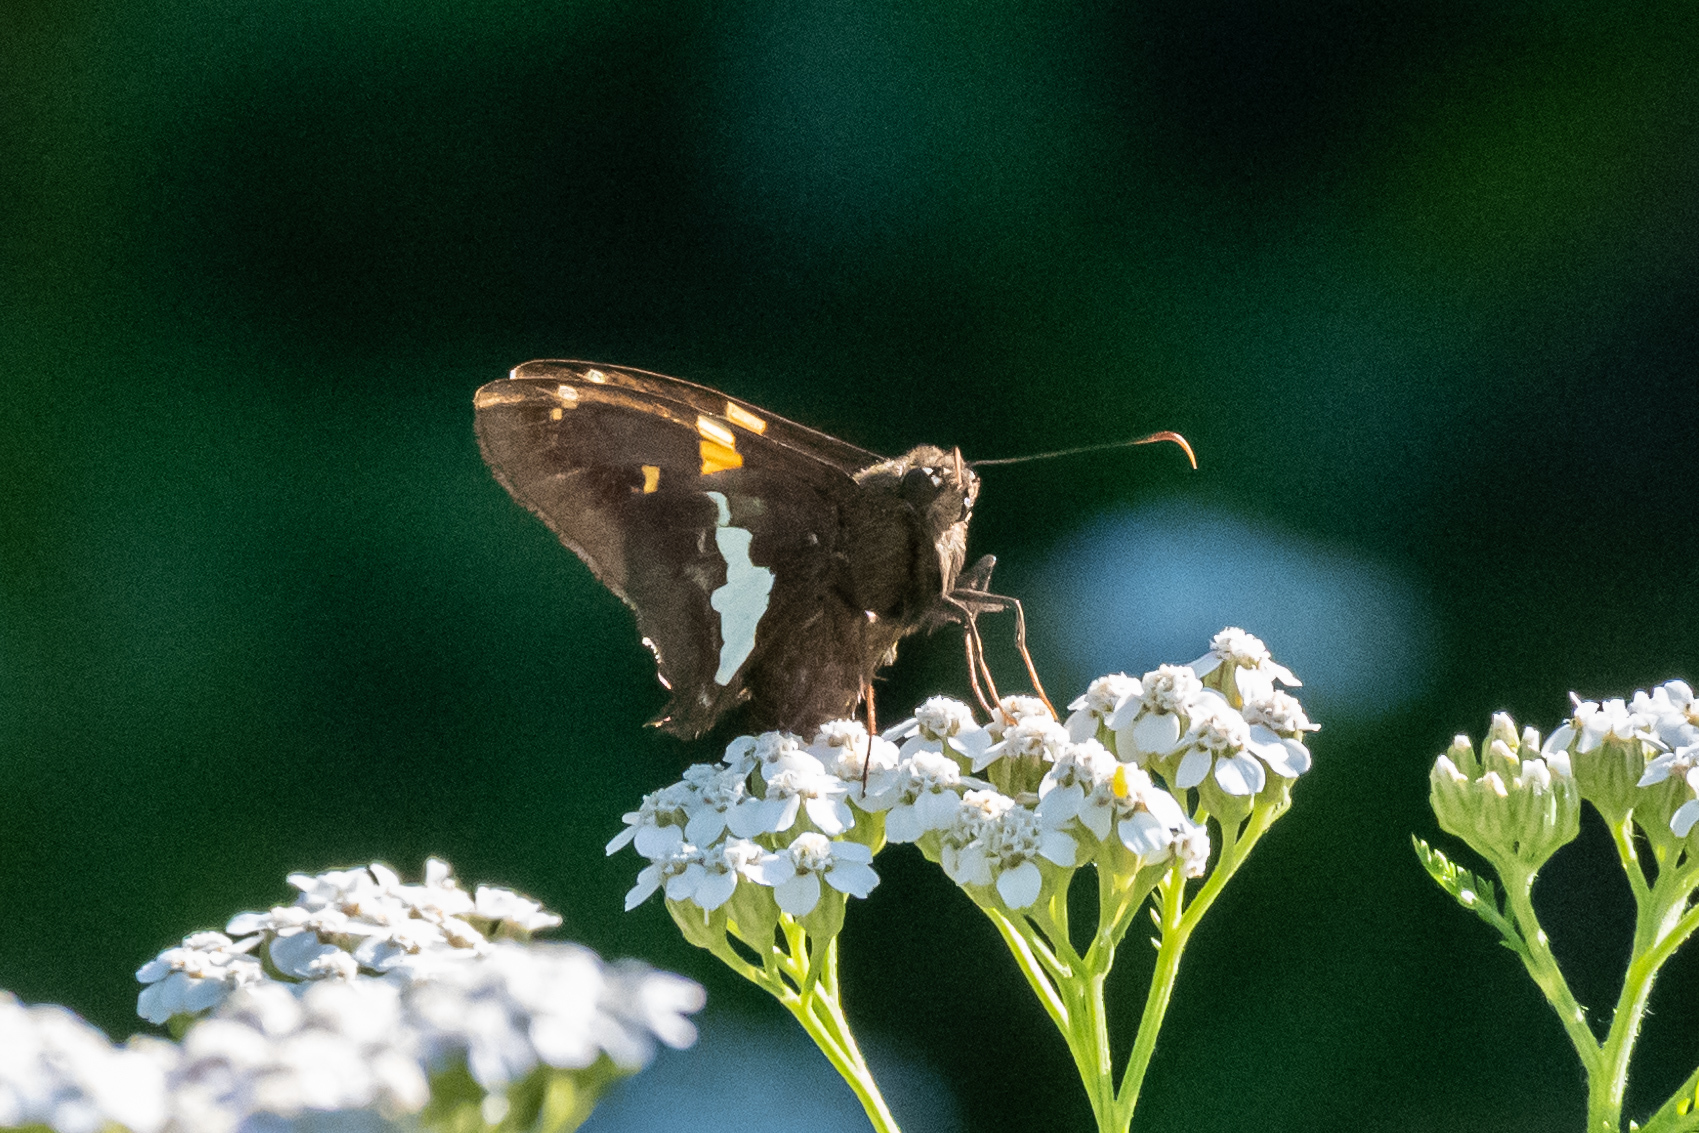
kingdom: Animalia
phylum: Arthropoda
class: Insecta
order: Lepidoptera
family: Hesperiidae
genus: Epargyreus
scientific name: Epargyreus clarus
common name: Silver-spotted skipper
